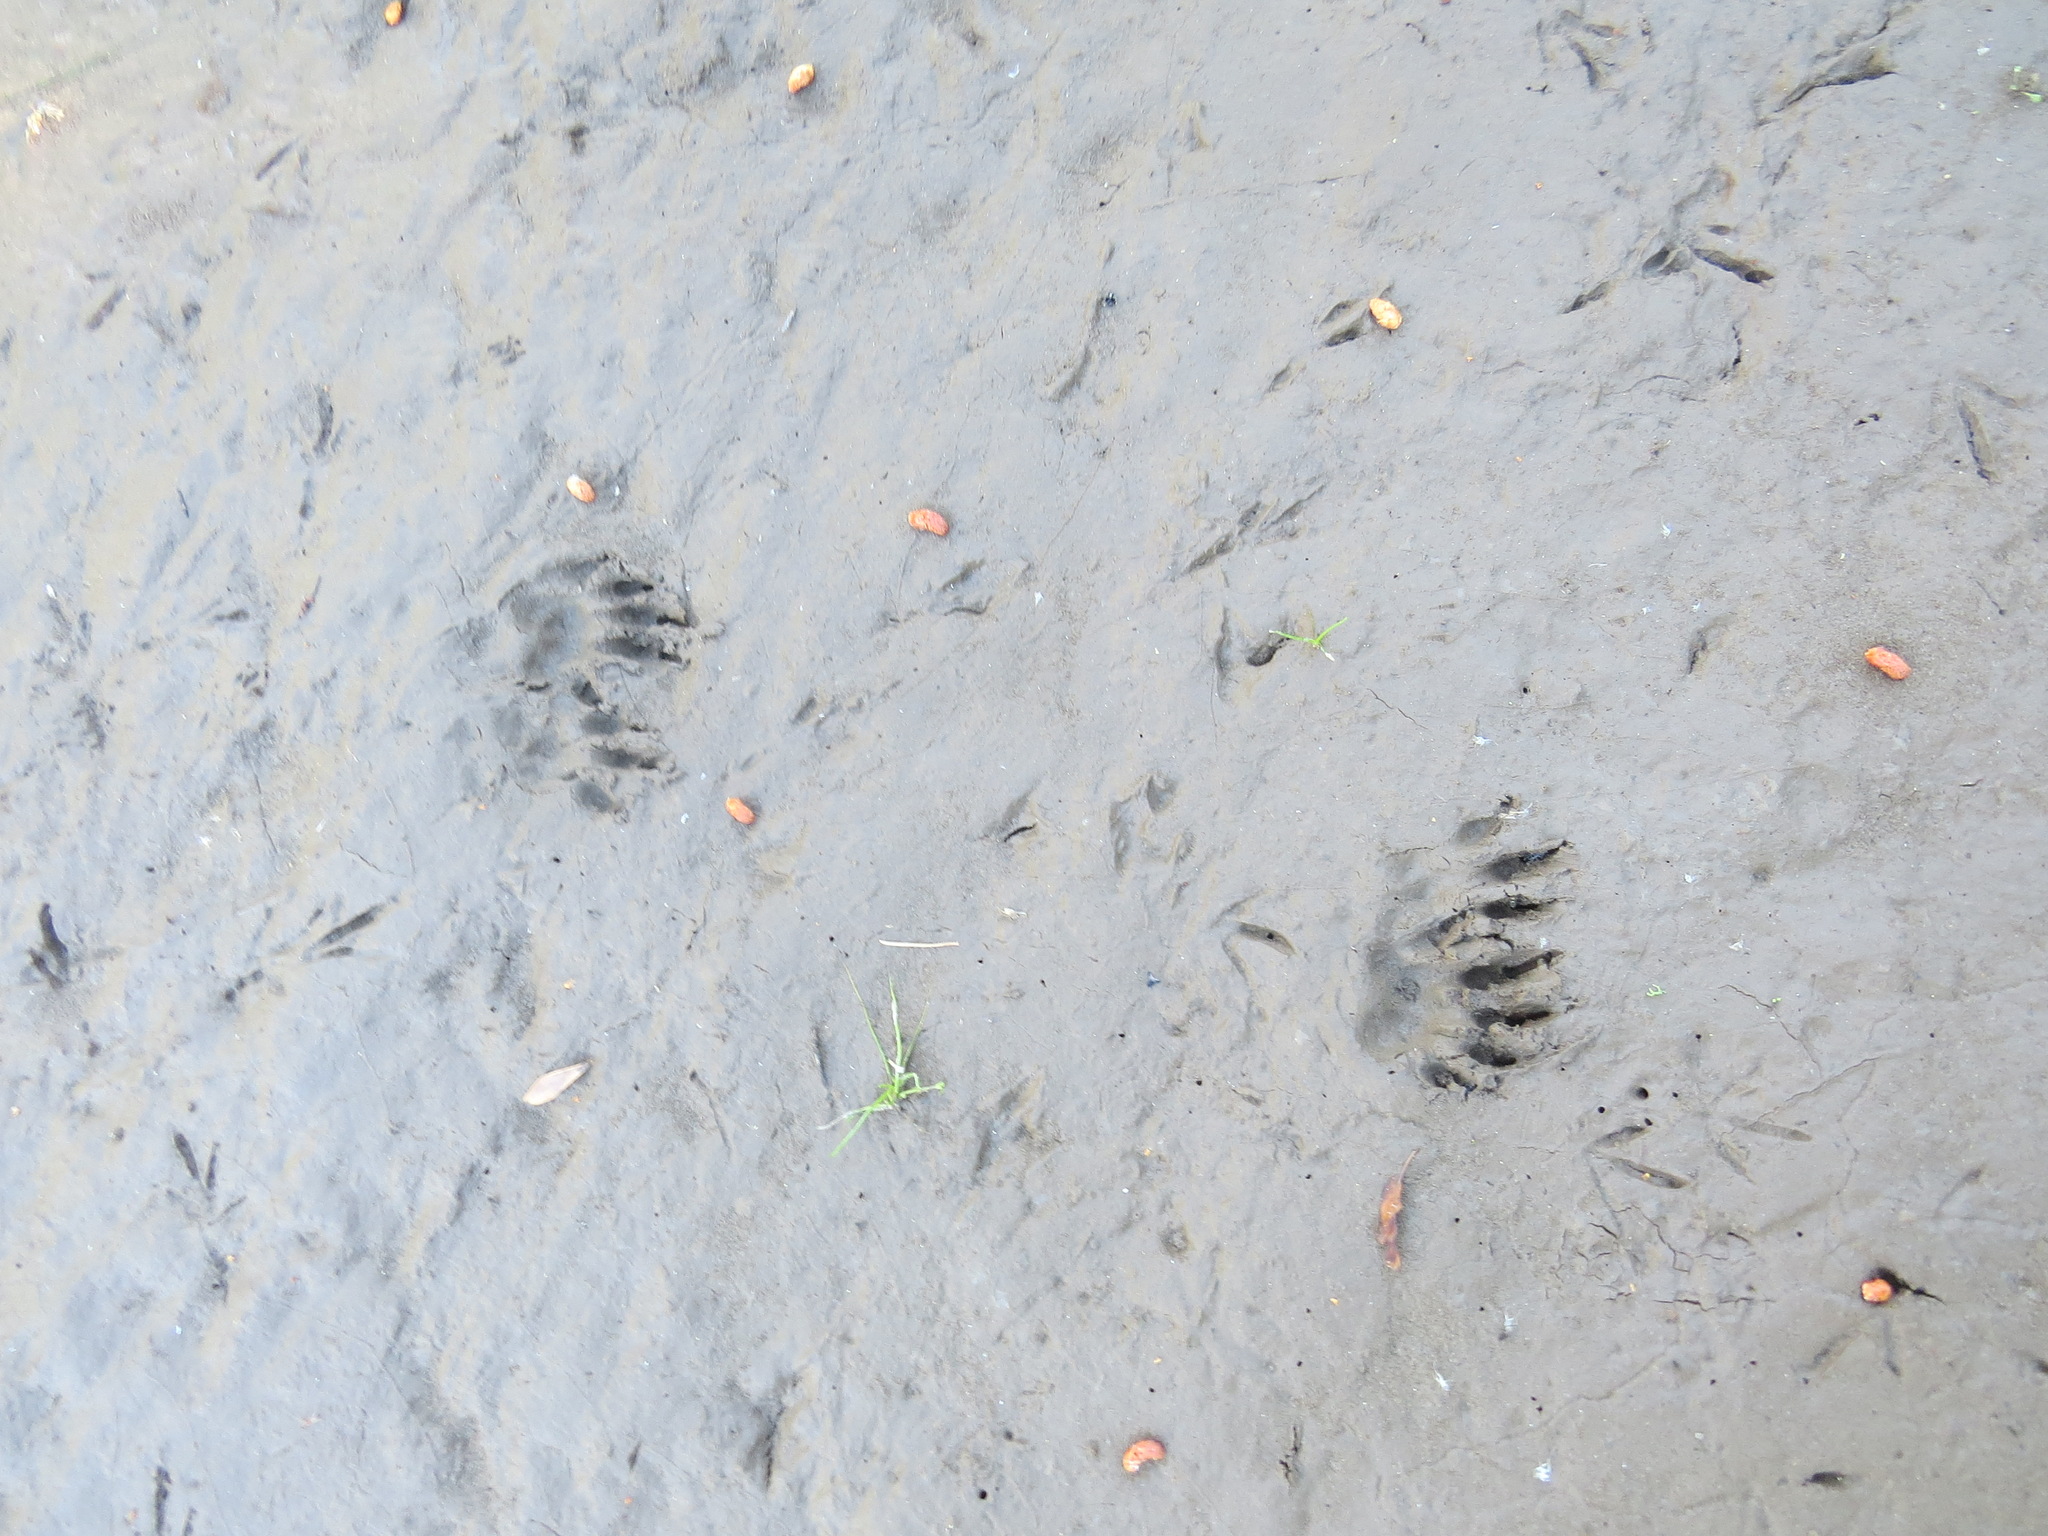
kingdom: Animalia
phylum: Chordata
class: Mammalia
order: Rodentia
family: Sciuridae
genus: Marmota
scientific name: Marmota flaviventris
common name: Yellow-bellied marmot
